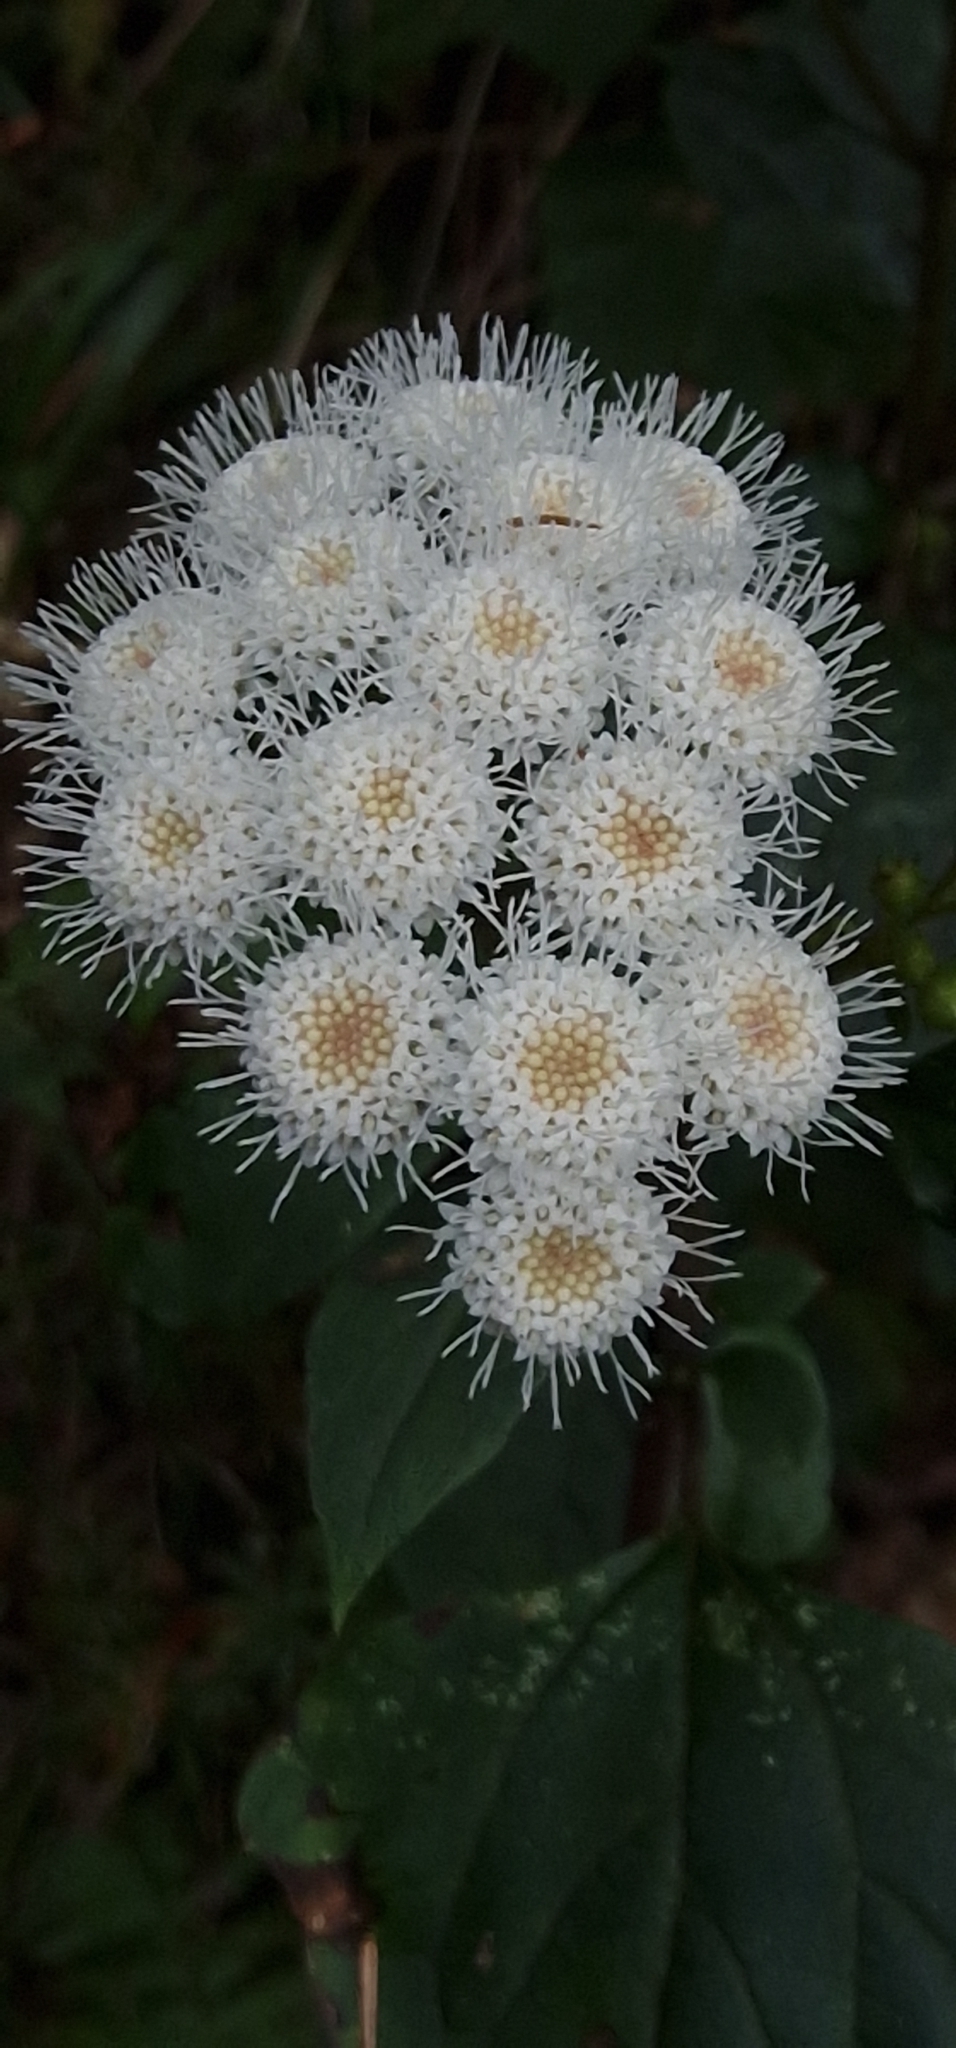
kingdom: Plantae
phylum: Tracheophyta
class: Magnoliopsida
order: Asterales
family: Asteraceae
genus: Ageratina
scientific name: Ageratina adenophora
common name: Sticky snakeroot
